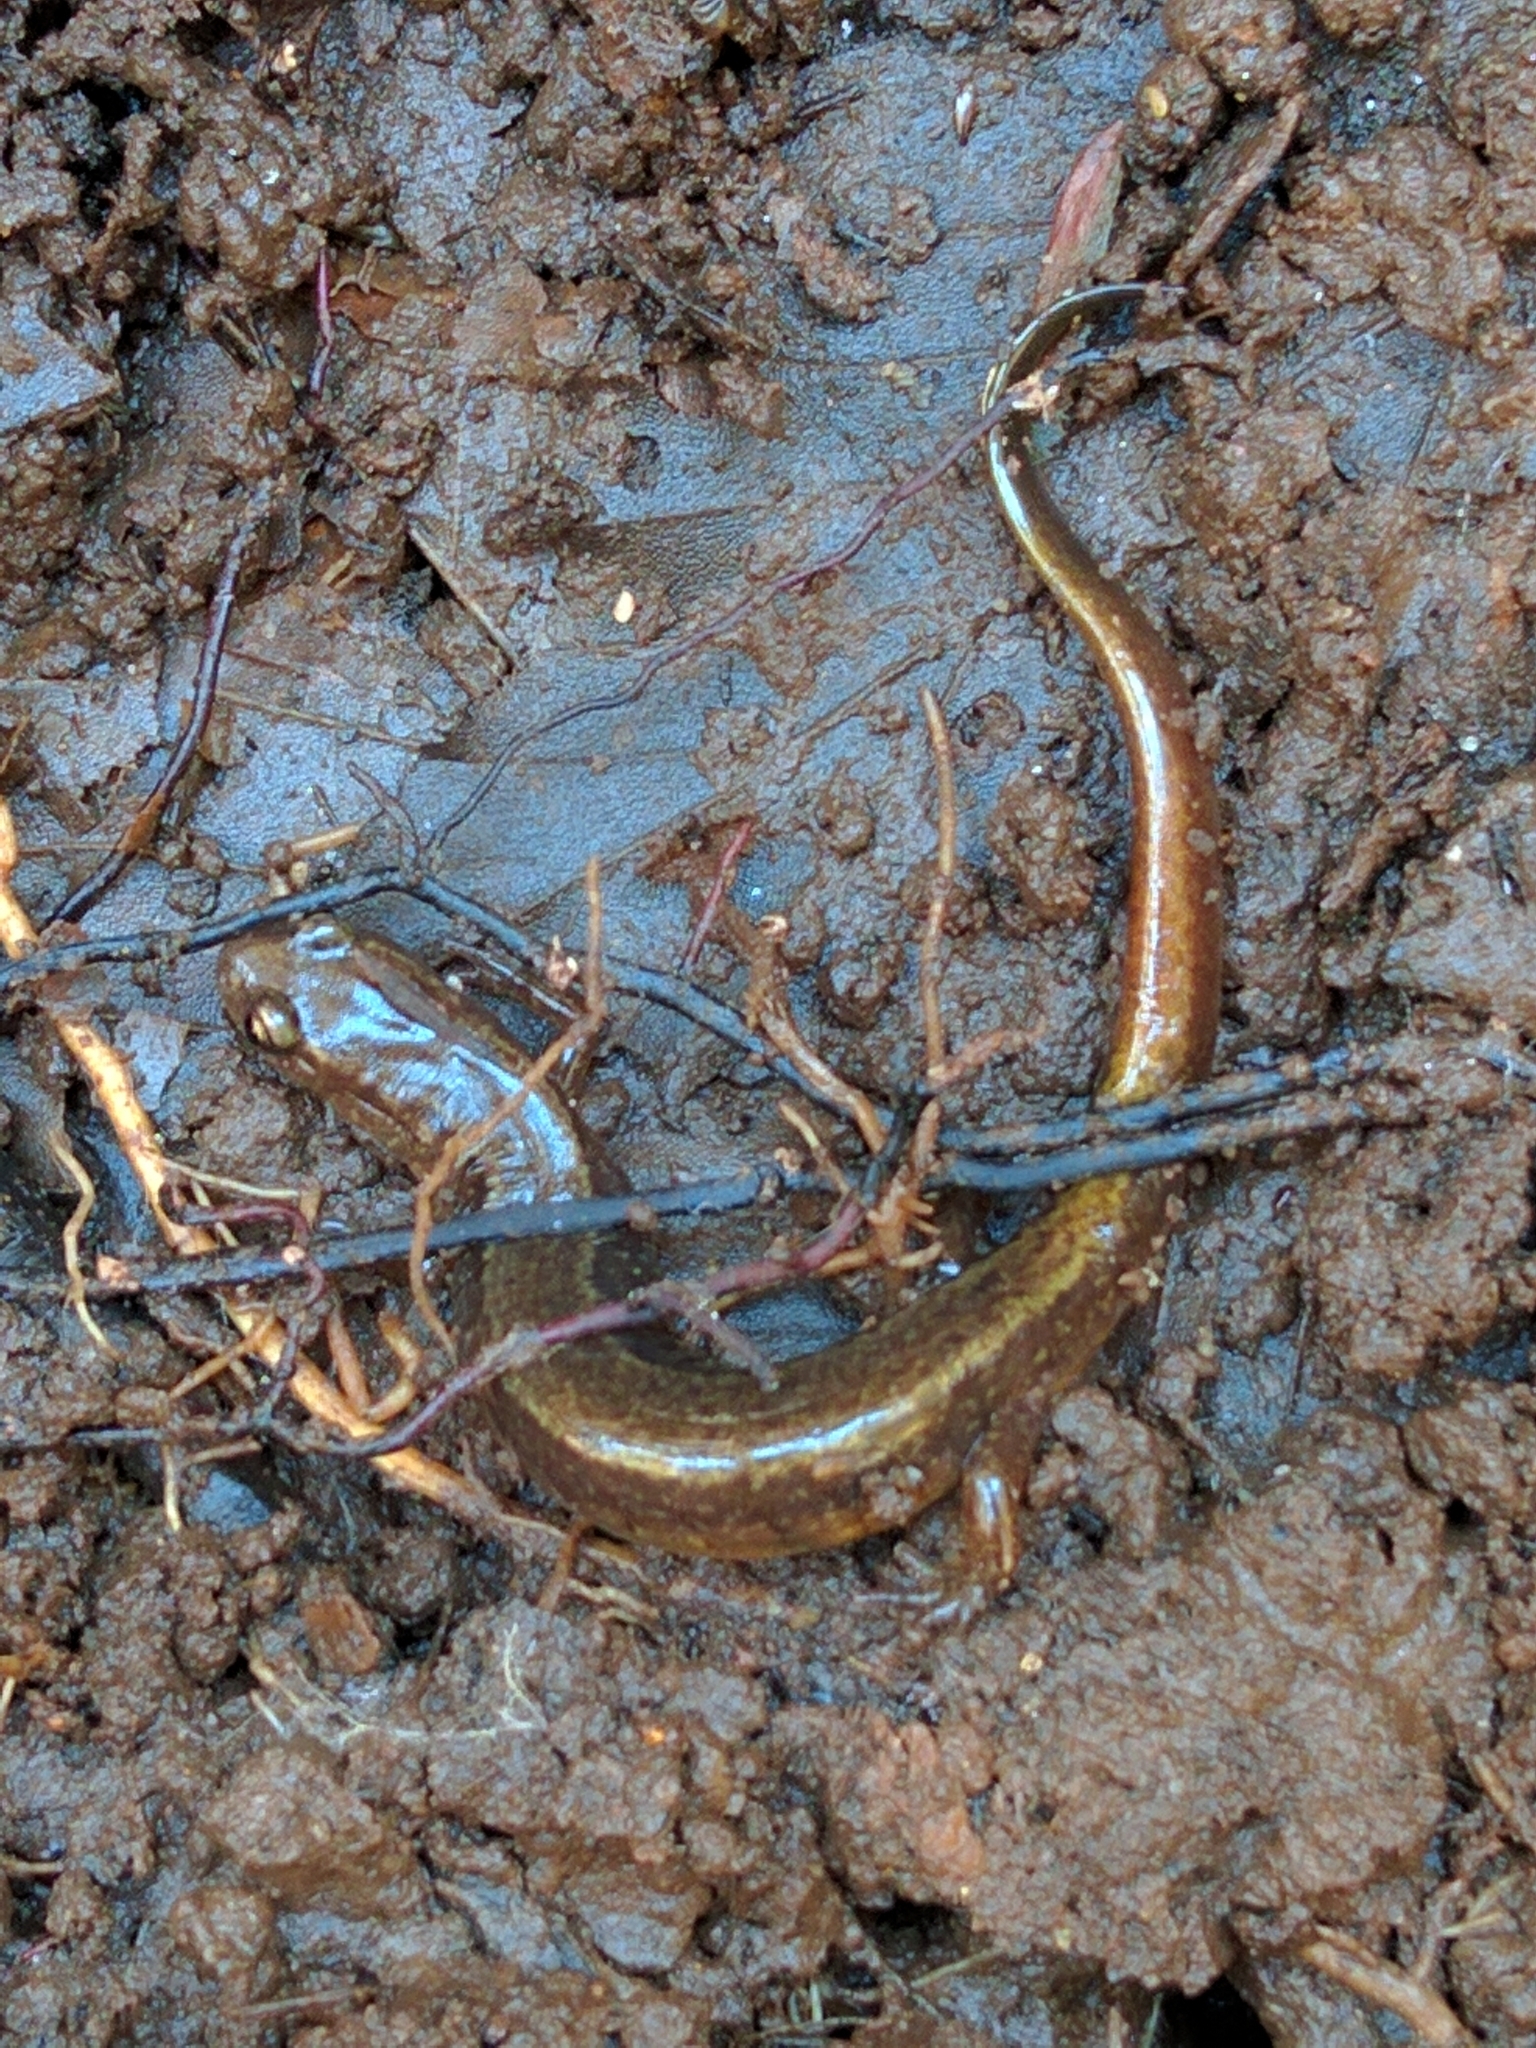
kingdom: Animalia
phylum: Chordata
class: Amphibia
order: Caudata
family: Plethodontidae
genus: Eurycea
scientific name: Eurycea bislineata
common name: Northern two-lined salamander
